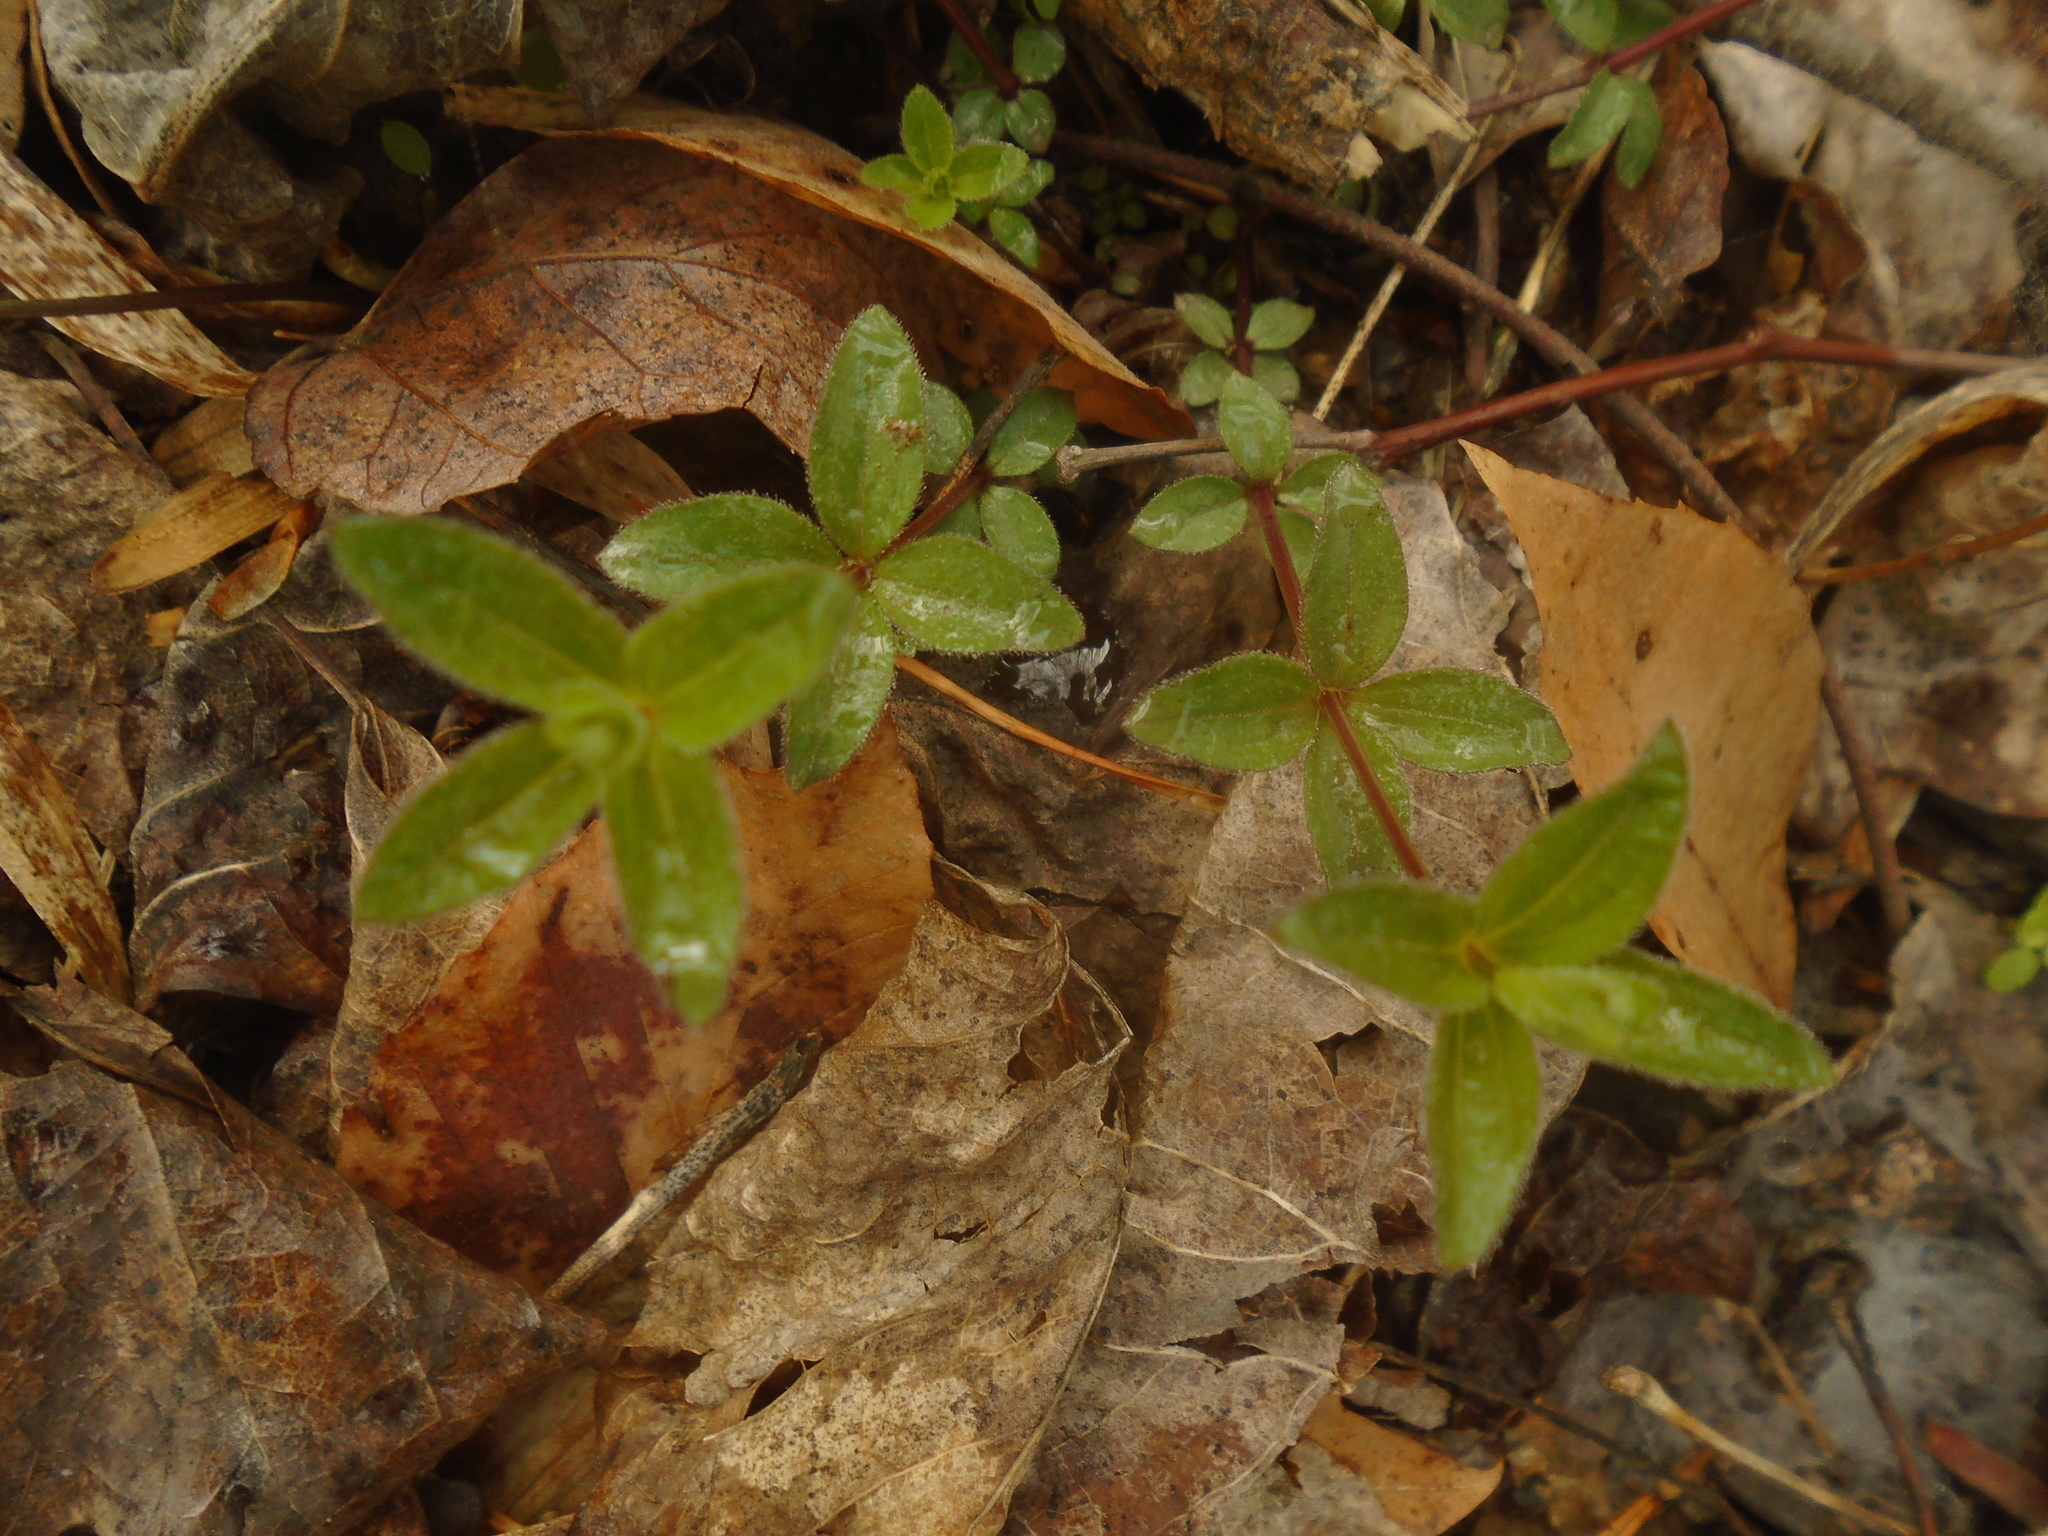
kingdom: Plantae
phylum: Tracheophyta
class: Magnoliopsida
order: Gentianales
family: Rubiaceae
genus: Galium
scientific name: Galium pilosum
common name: Hairy bedstraw
